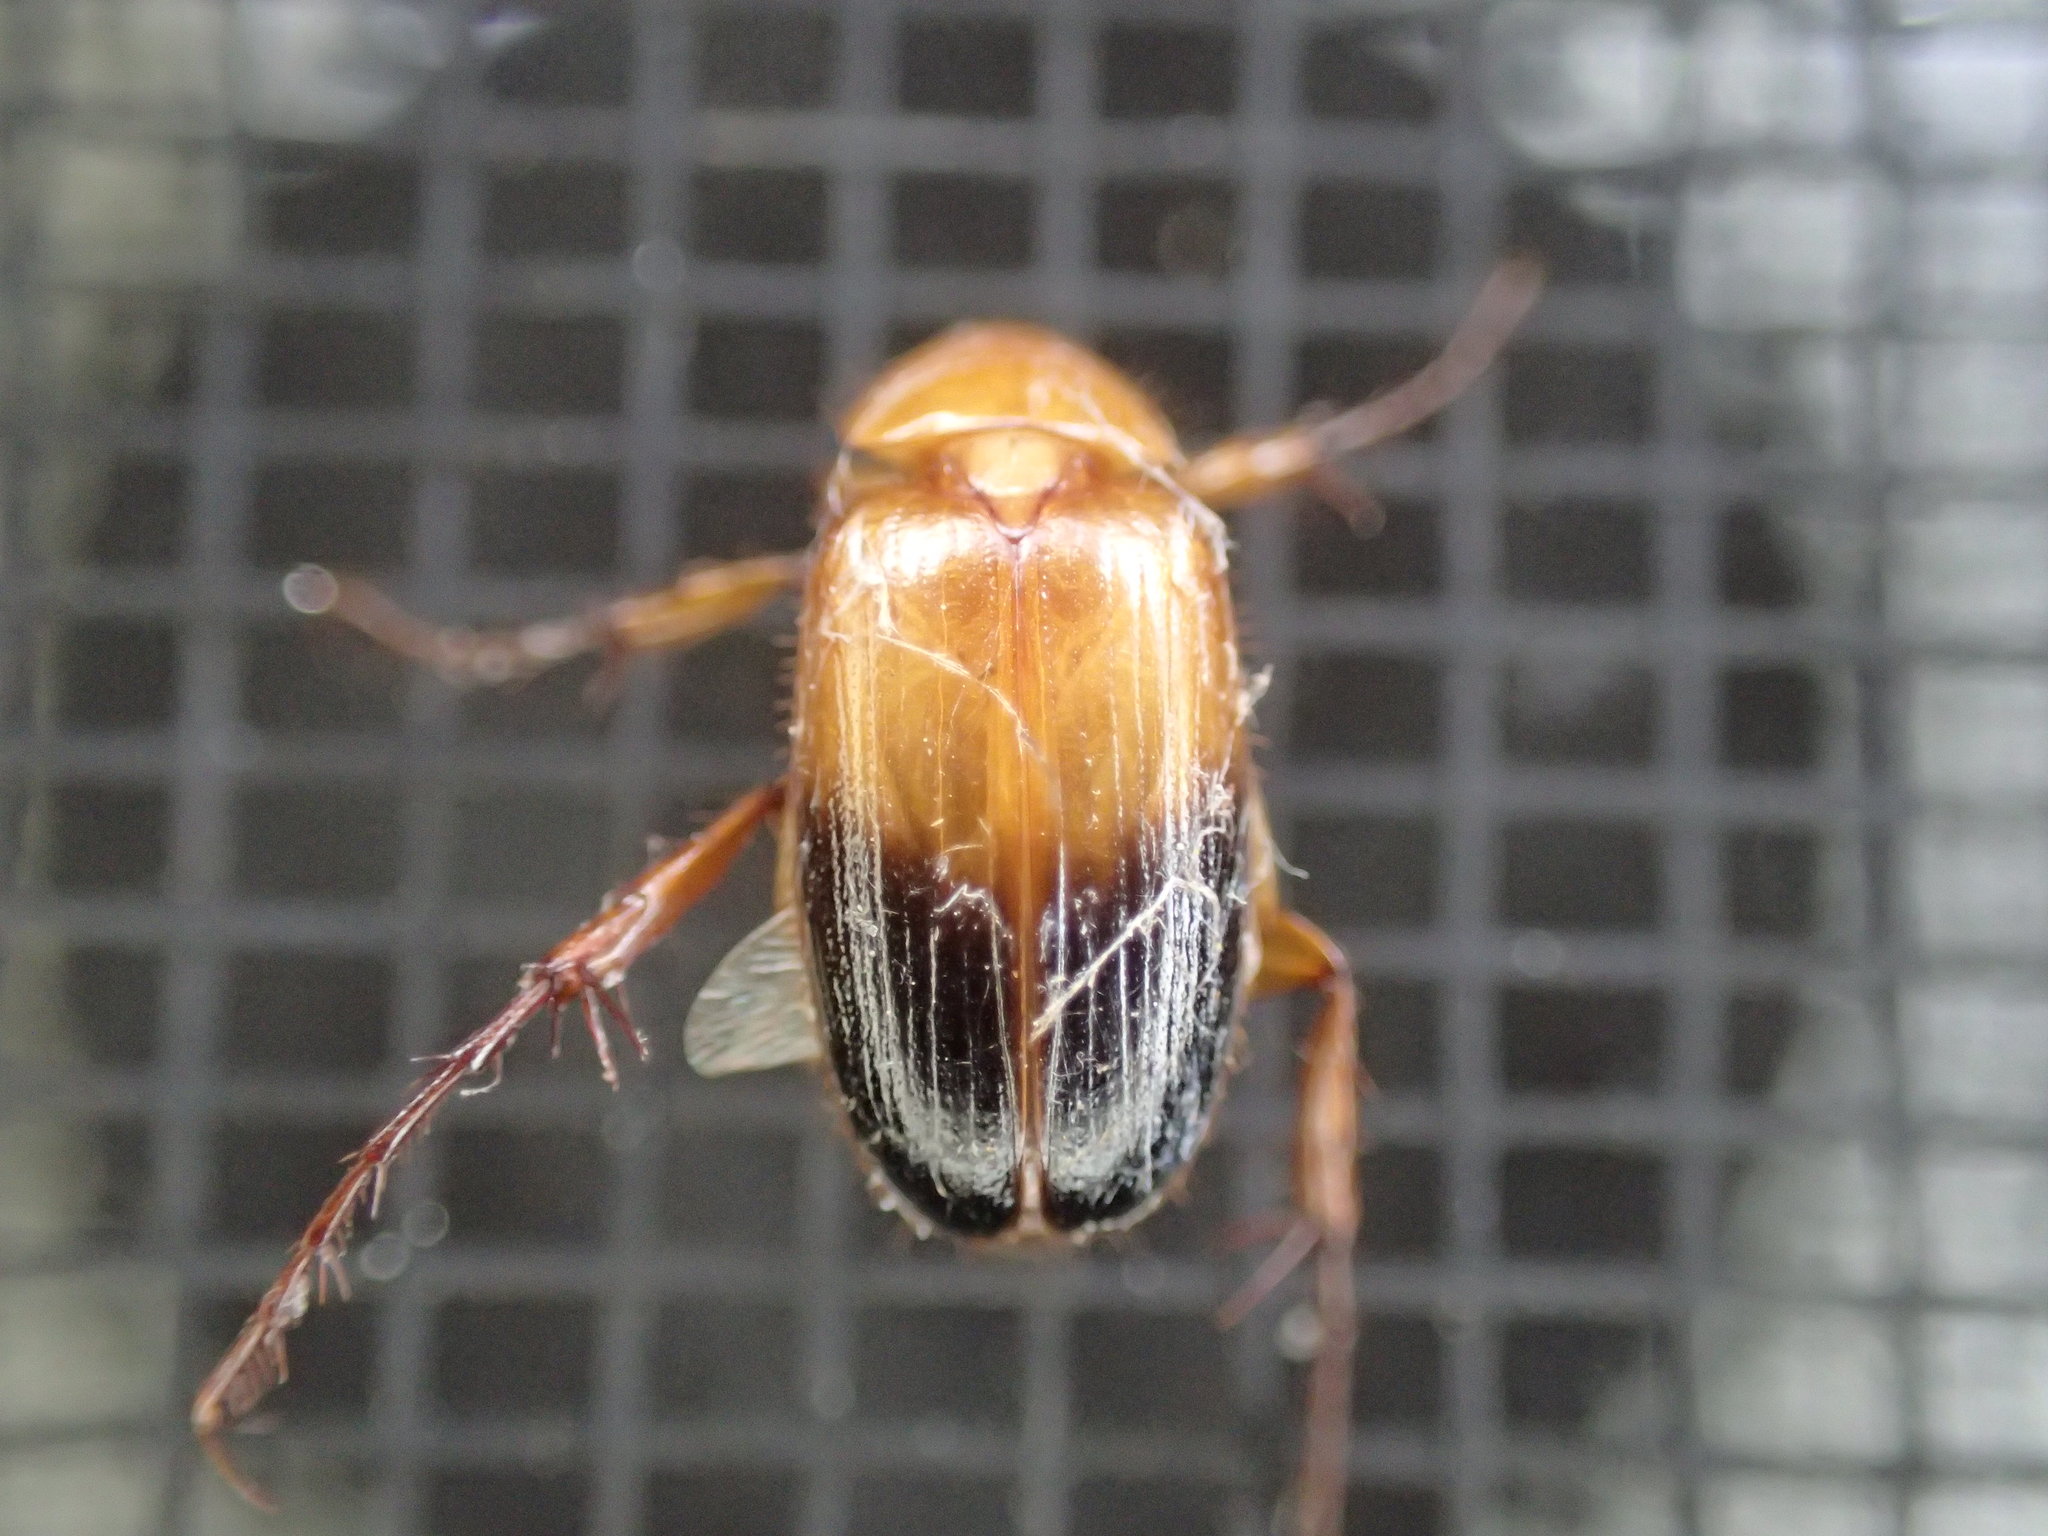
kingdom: Animalia
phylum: Arthropoda
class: Insecta
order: Coleoptera
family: Scarabaeidae
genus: Phyllotocus
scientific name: Phyllotocus macleayi
